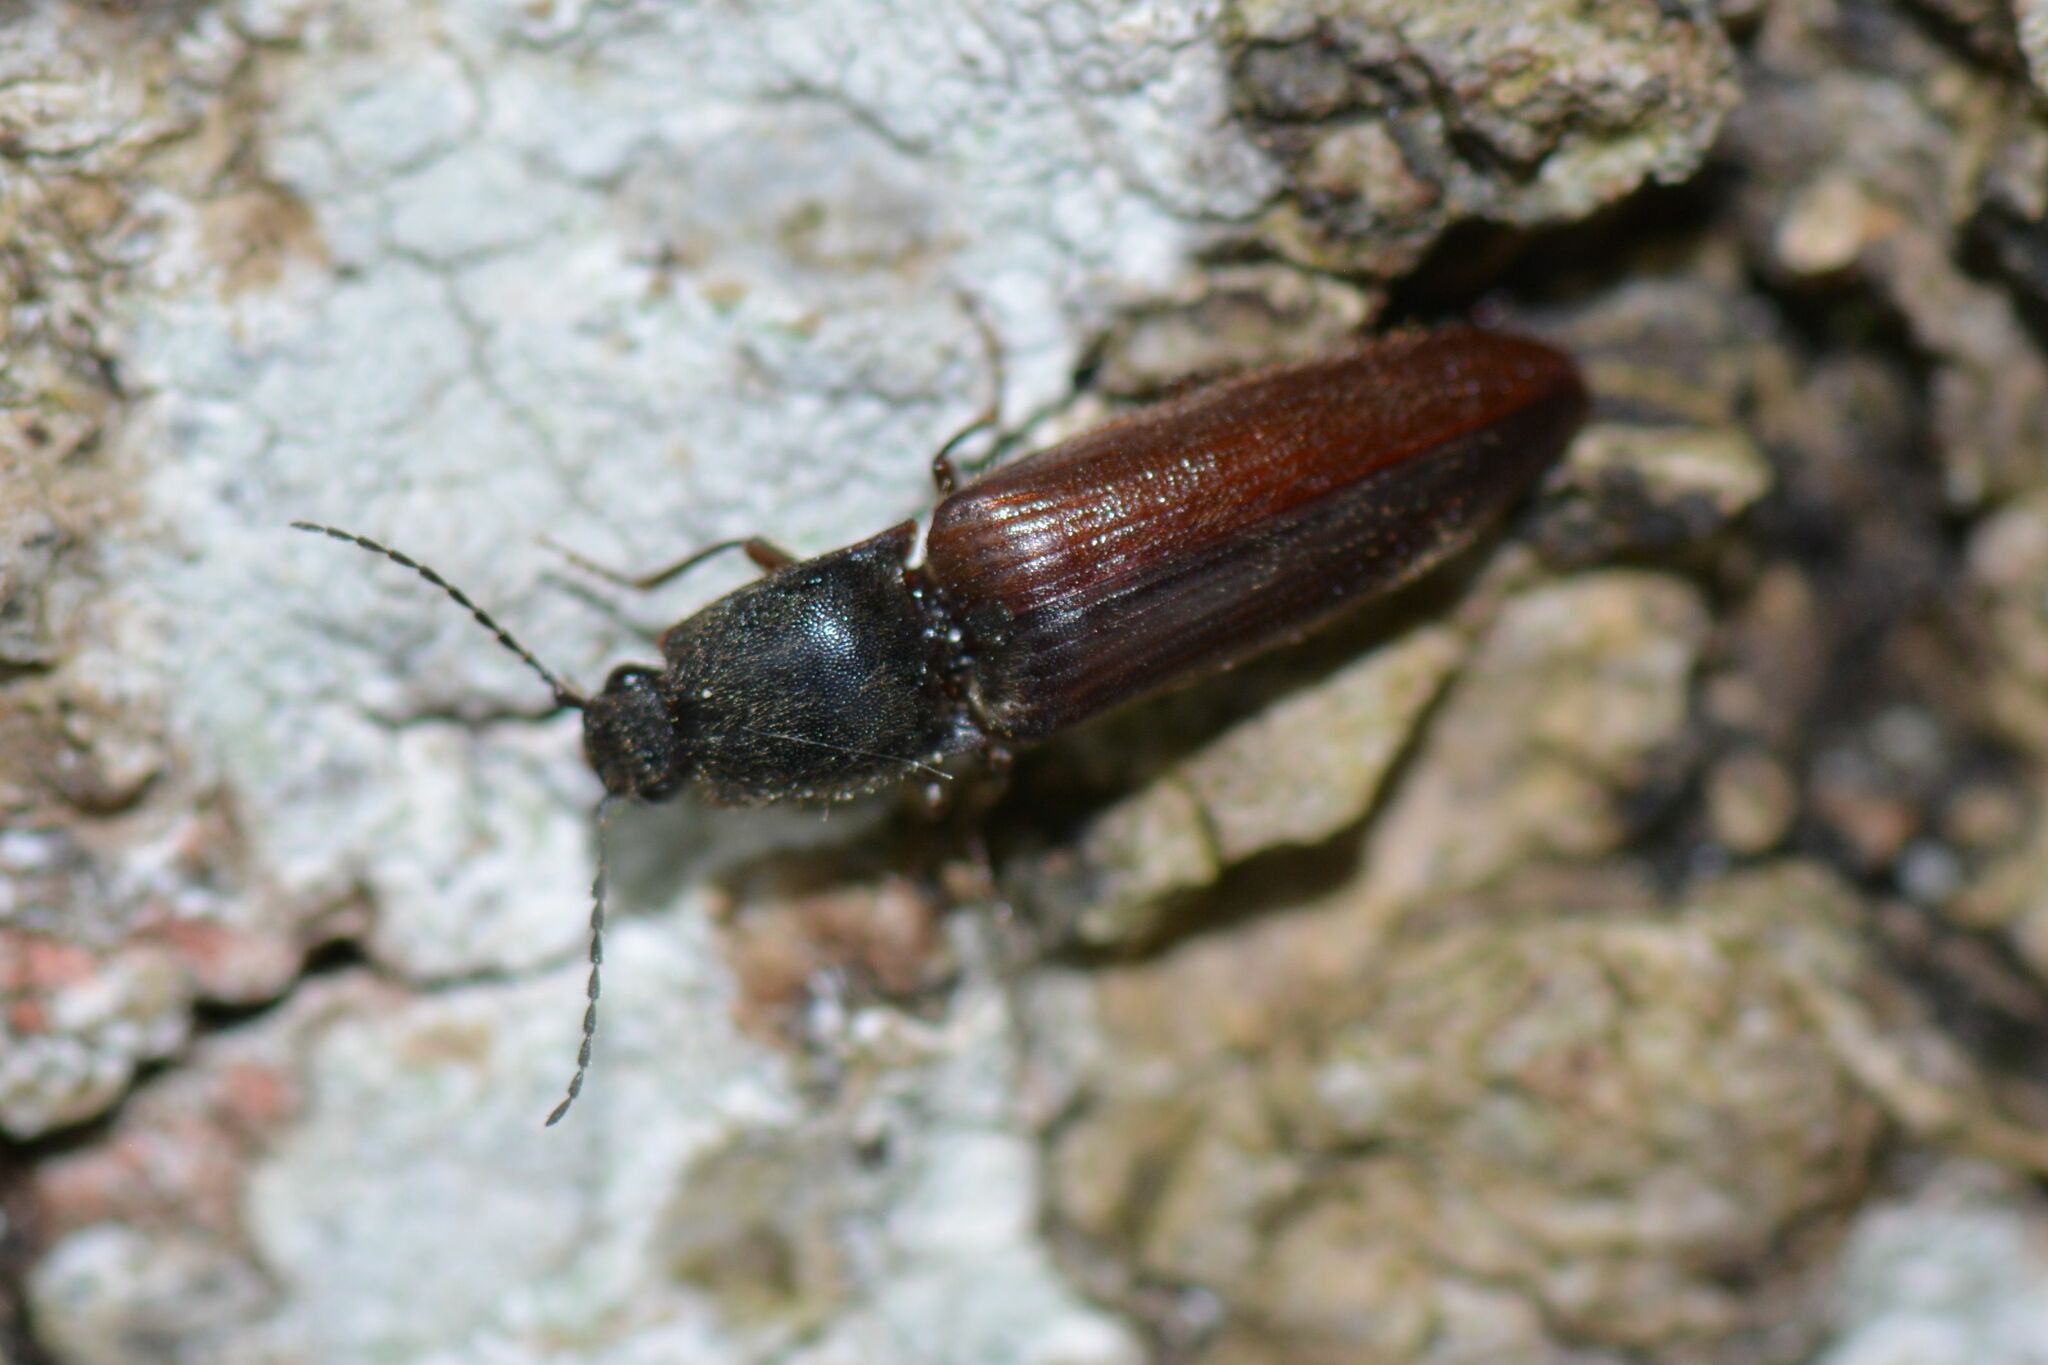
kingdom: Animalia
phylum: Arthropoda
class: Insecta
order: Coleoptera
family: Elateridae
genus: Athous
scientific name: Athous haemorrhoidalis
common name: Red-brown click beetle
